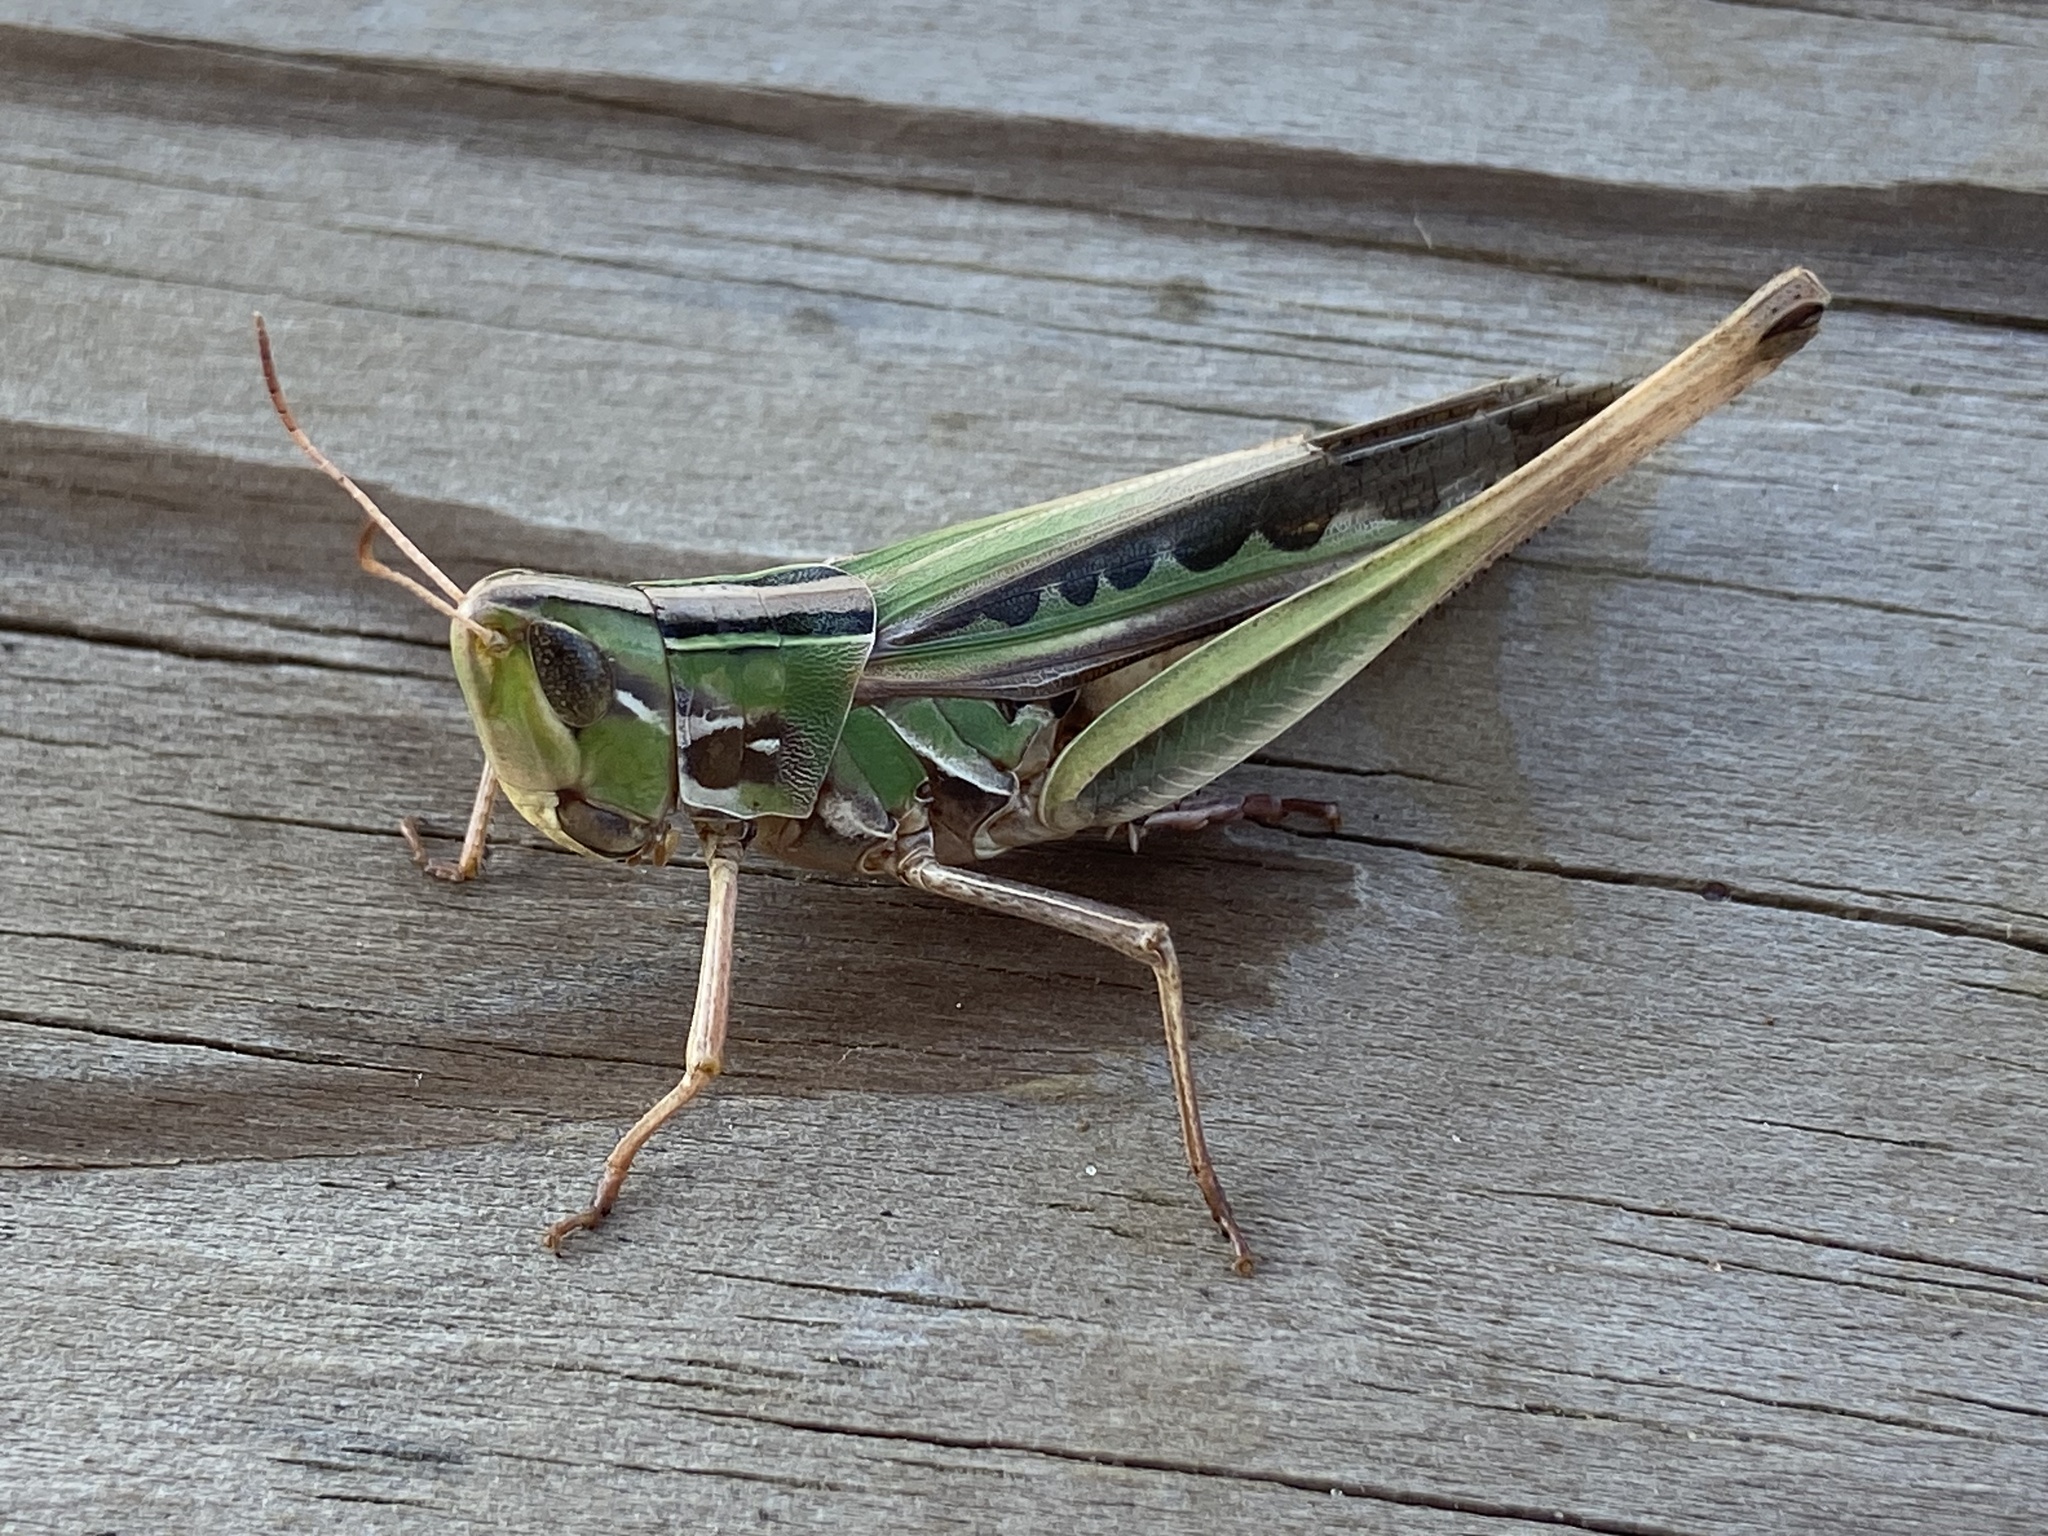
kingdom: Animalia
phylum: Arthropoda
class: Insecta
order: Orthoptera
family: Acrididae
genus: Syrbula
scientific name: Syrbula admirabilis
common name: Handsome grasshopper
